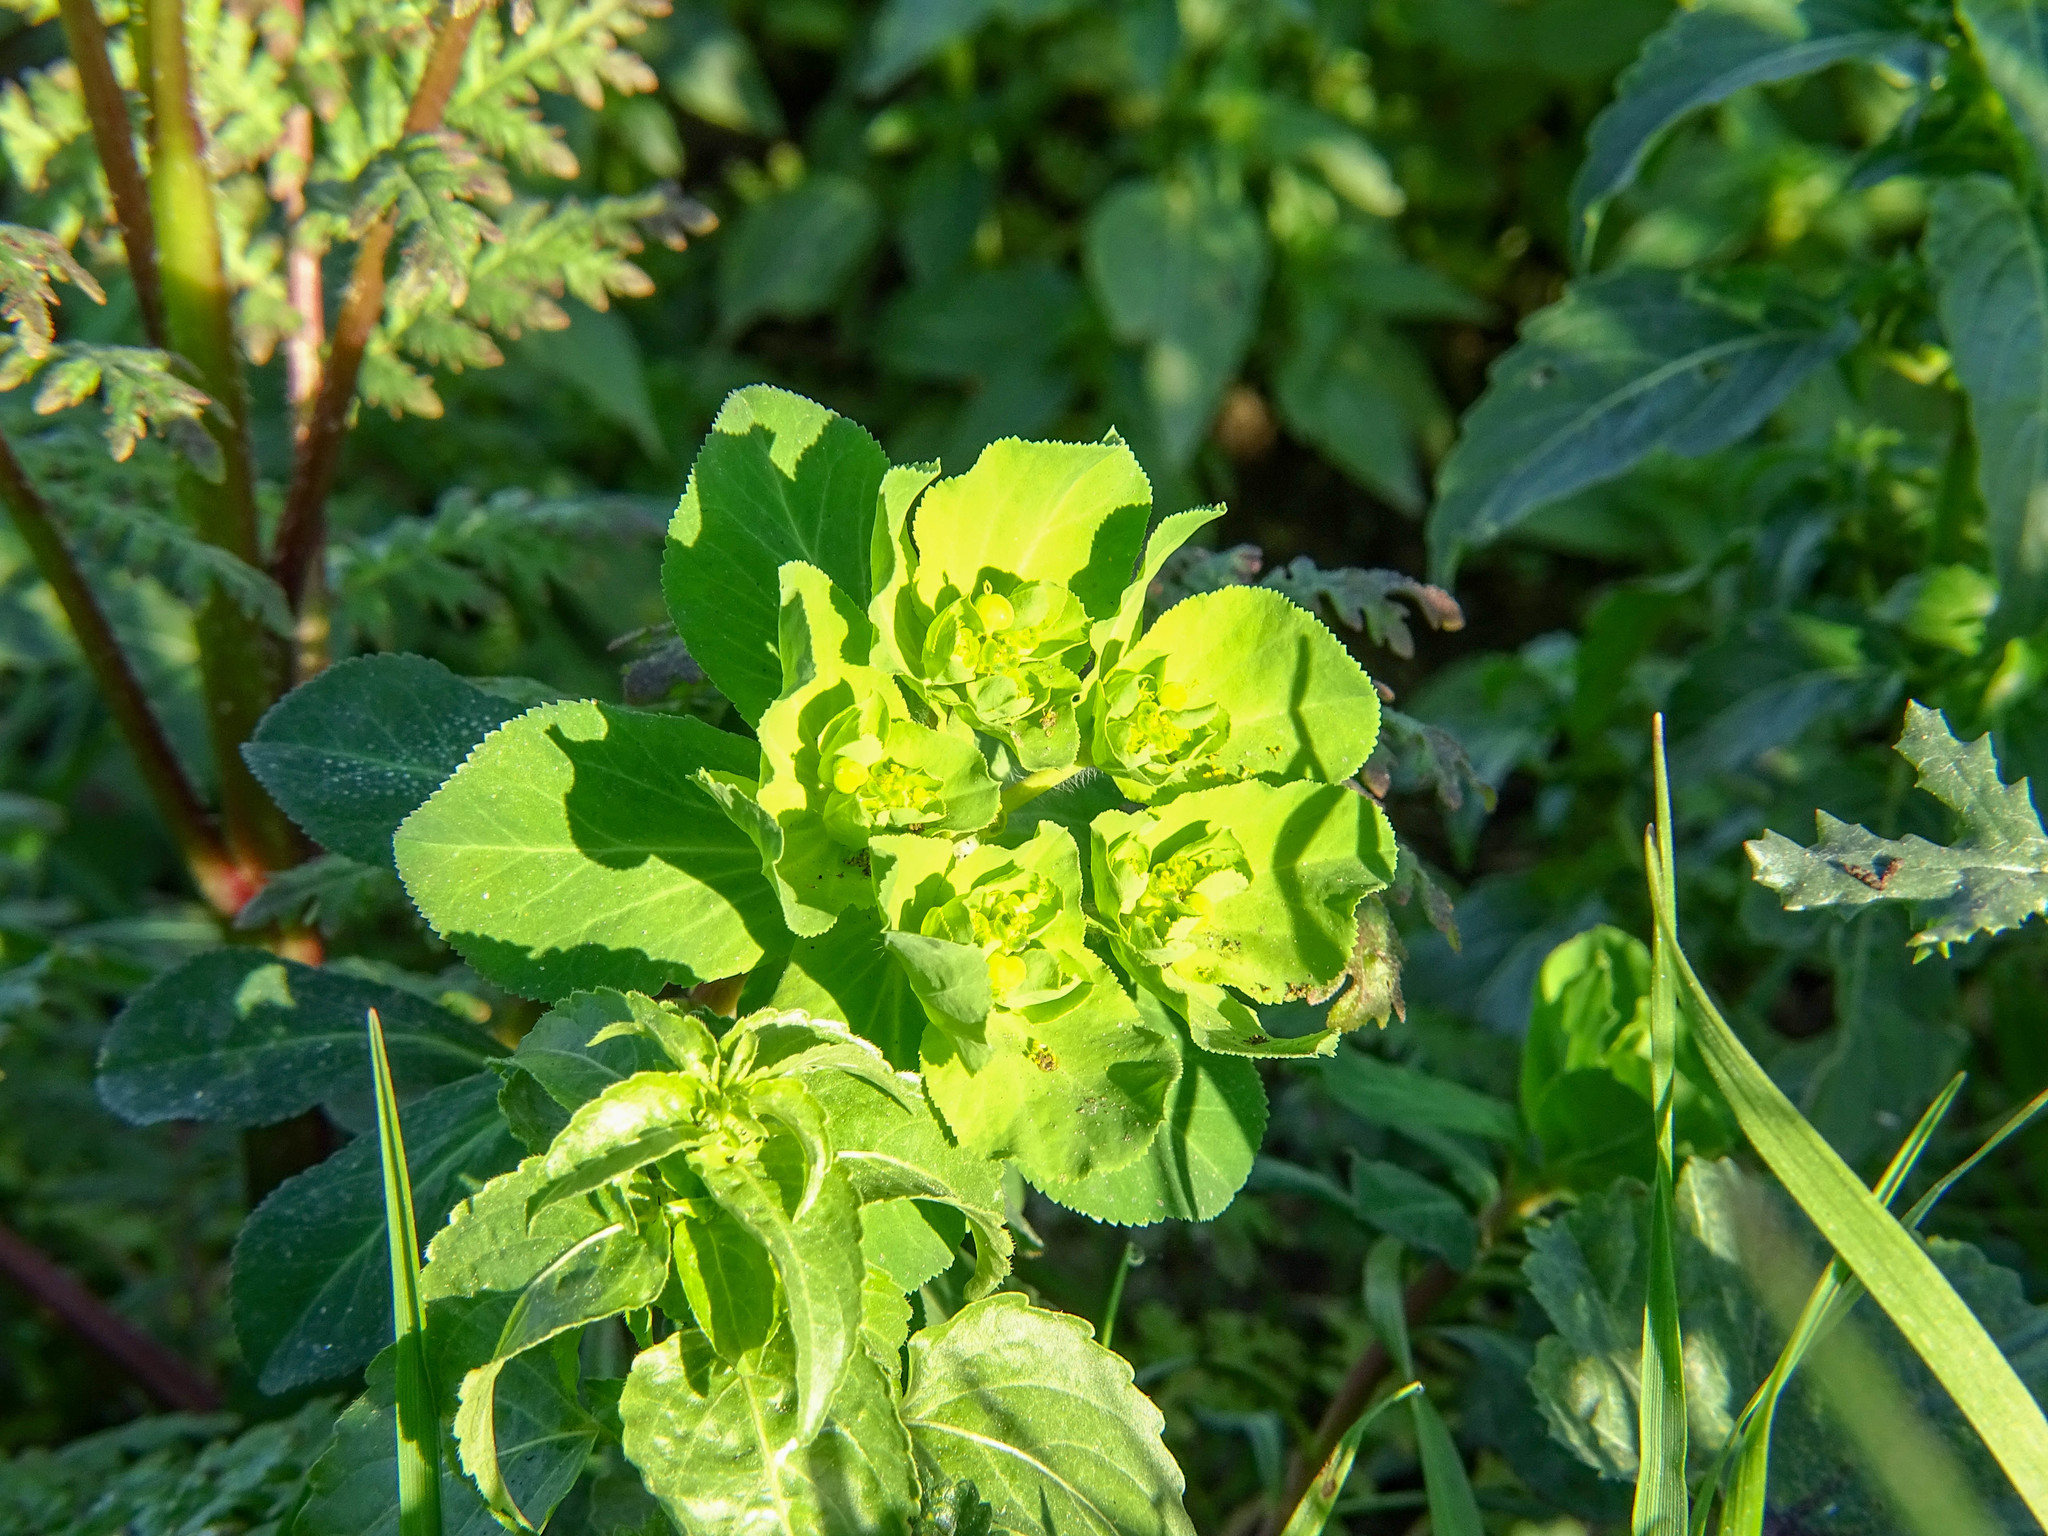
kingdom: Plantae
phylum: Tracheophyta
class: Magnoliopsida
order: Malpighiales
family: Euphorbiaceae
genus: Euphorbia
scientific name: Euphorbia helioscopia
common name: Sun spurge
